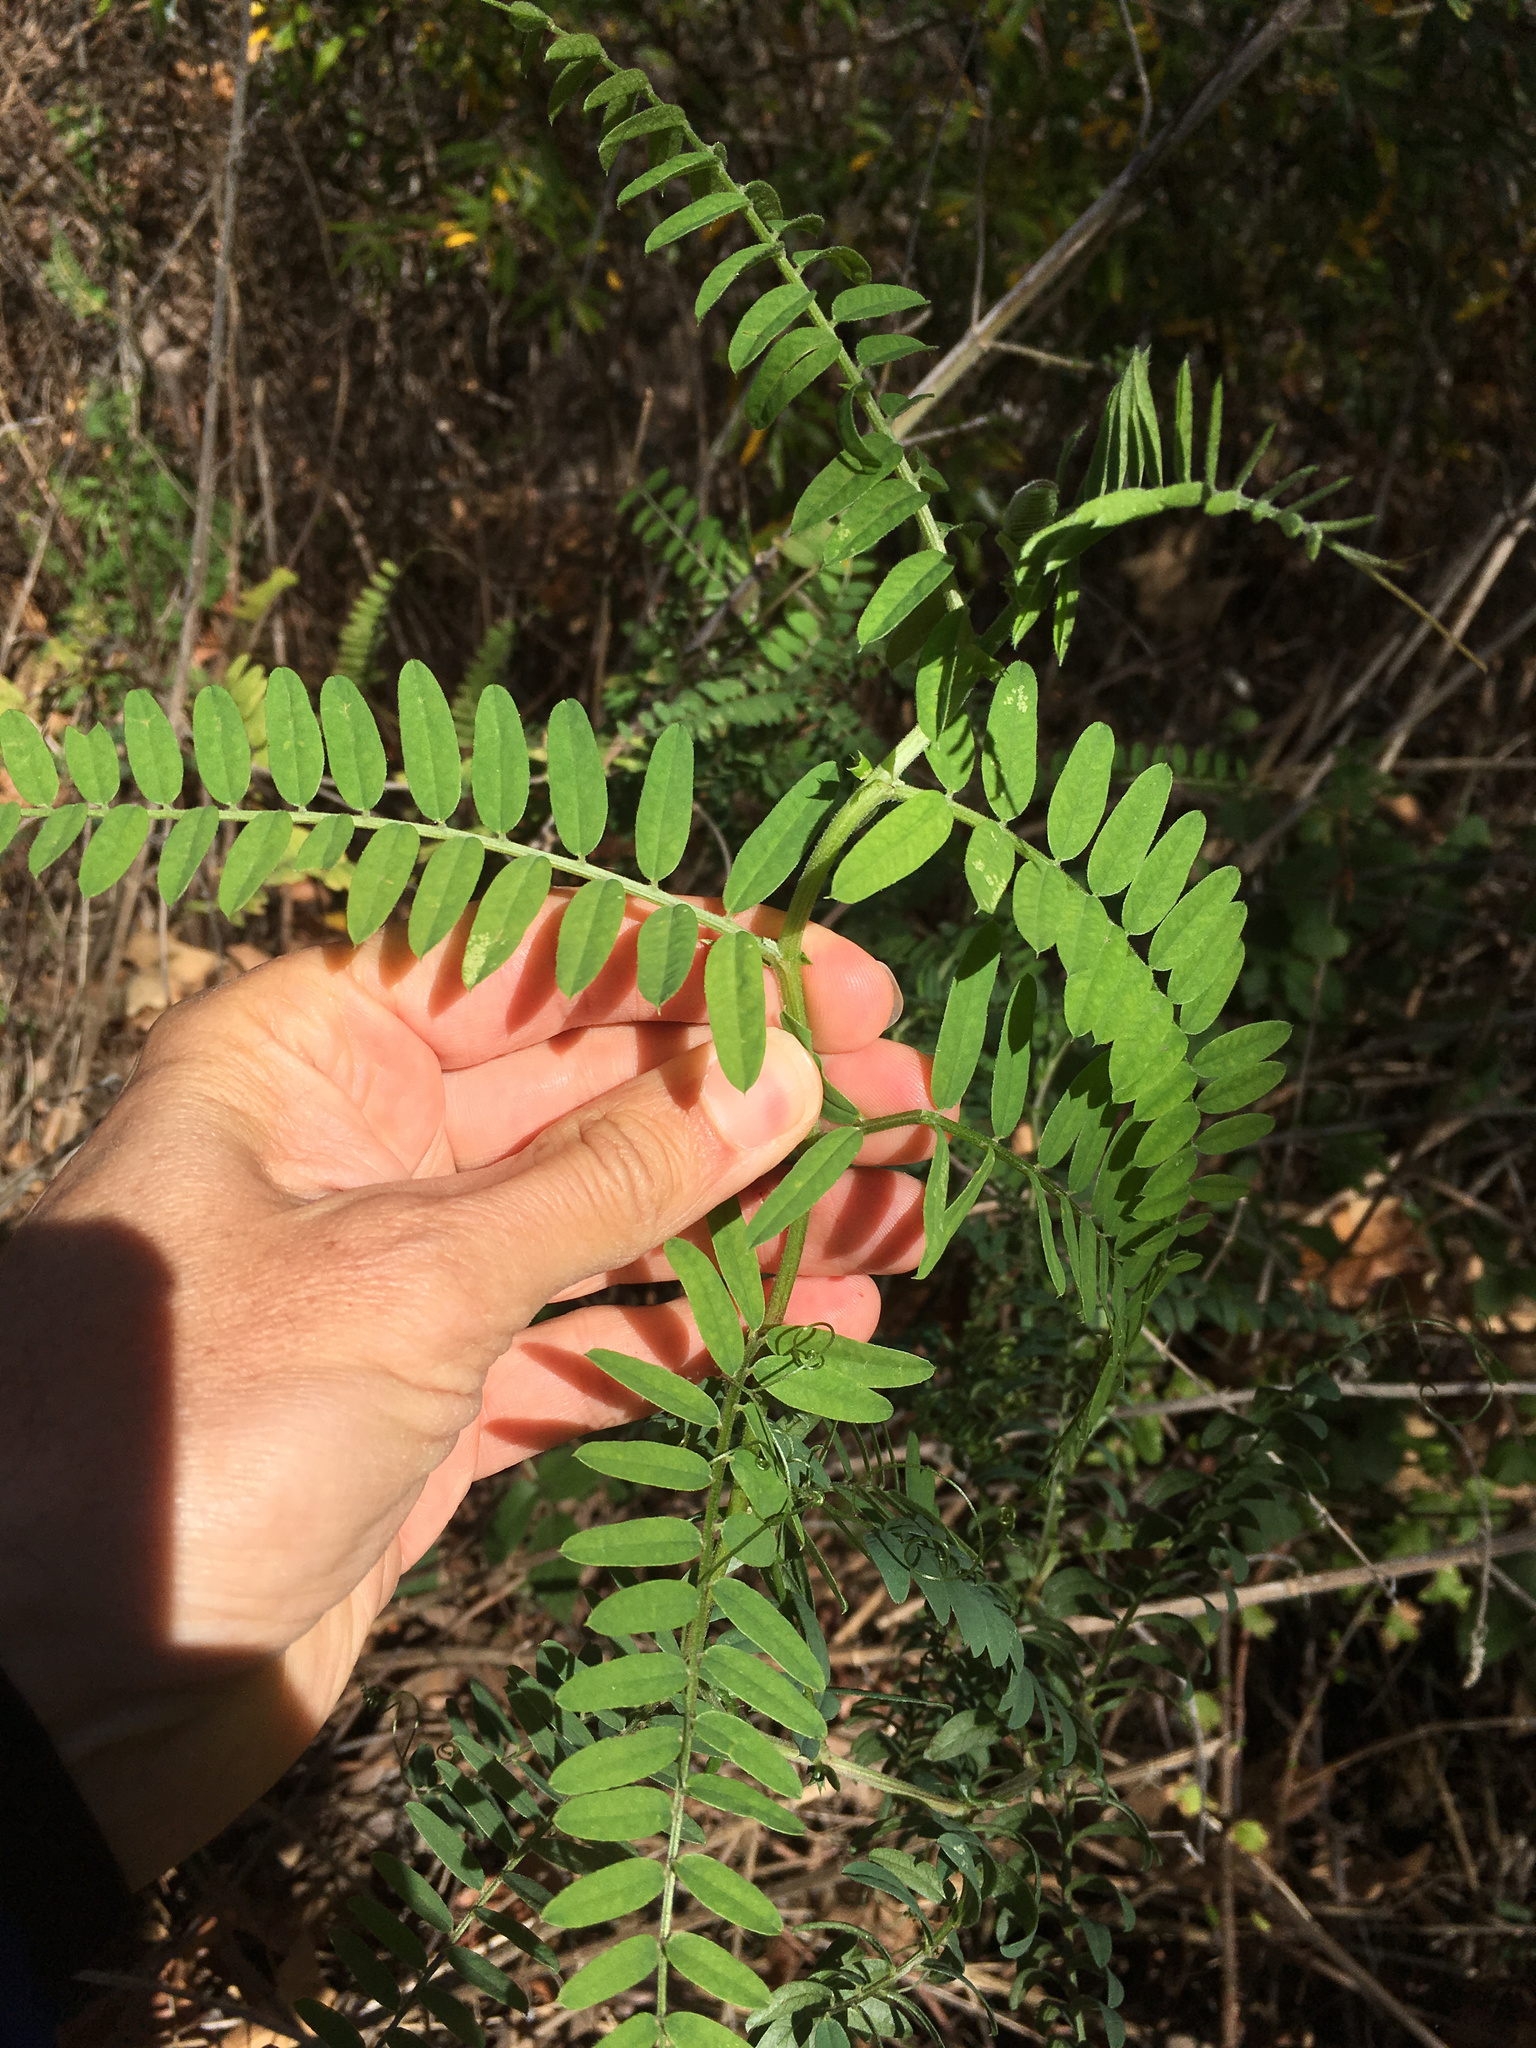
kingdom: Plantae
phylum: Tracheophyta
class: Magnoliopsida
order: Fabales
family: Fabaceae
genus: Vicia
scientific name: Vicia
